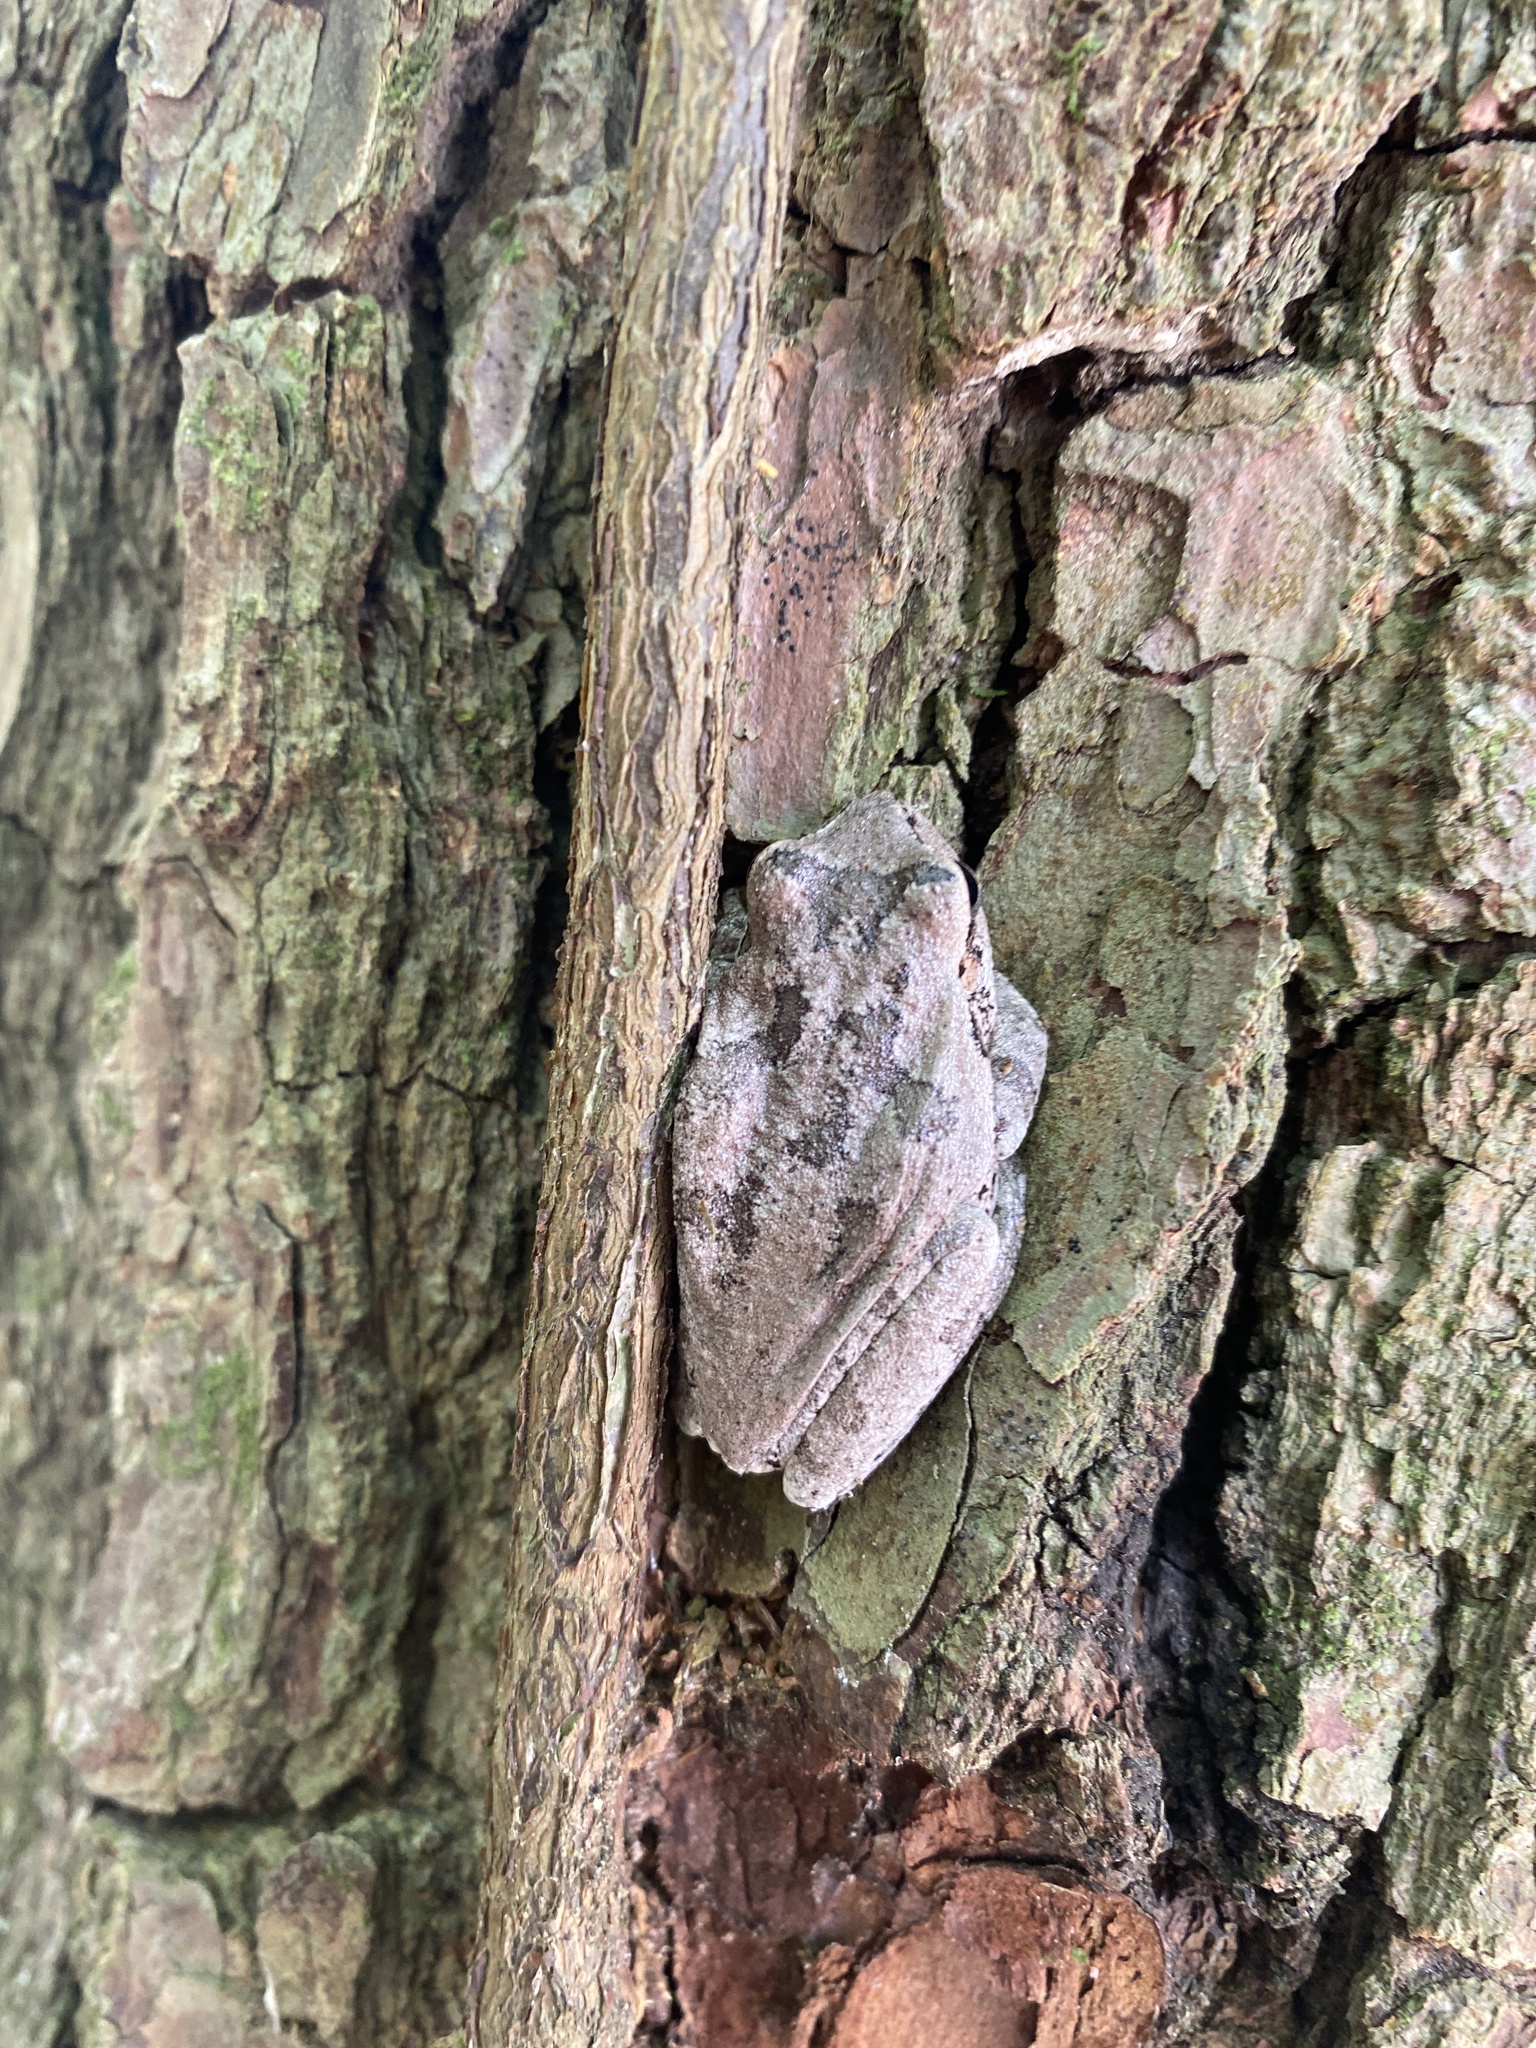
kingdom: Animalia
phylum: Chordata
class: Amphibia
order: Anura
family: Hylidae
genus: Hyla
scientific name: Hyla femoralis
